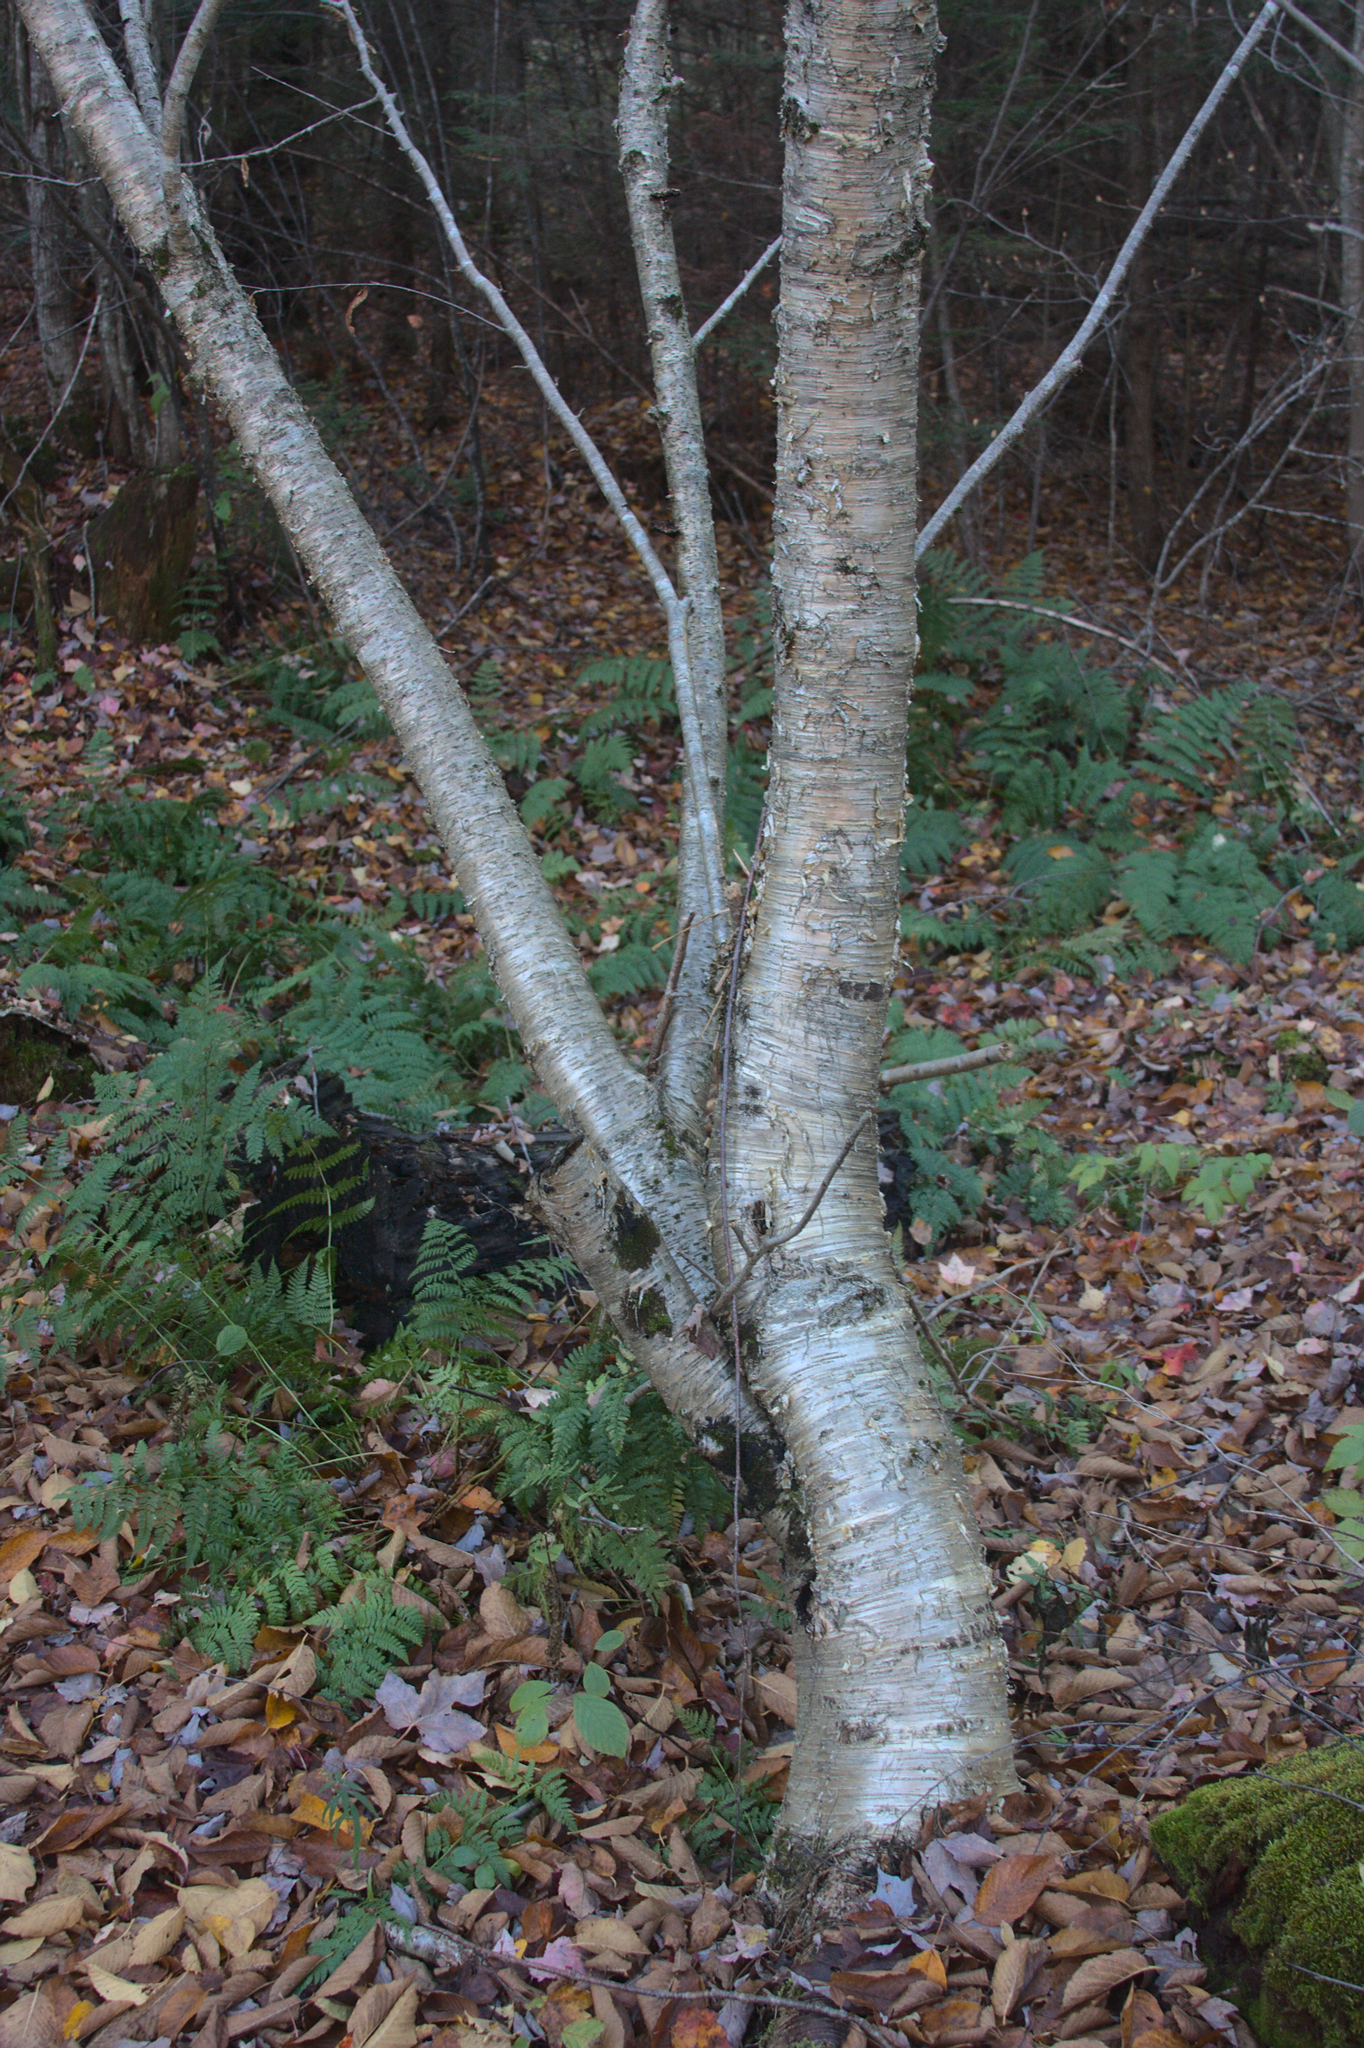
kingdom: Plantae
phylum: Tracheophyta
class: Magnoliopsida
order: Fagales
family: Betulaceae
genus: Betula
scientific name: Betula alleghaniensis
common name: Yellow birch
